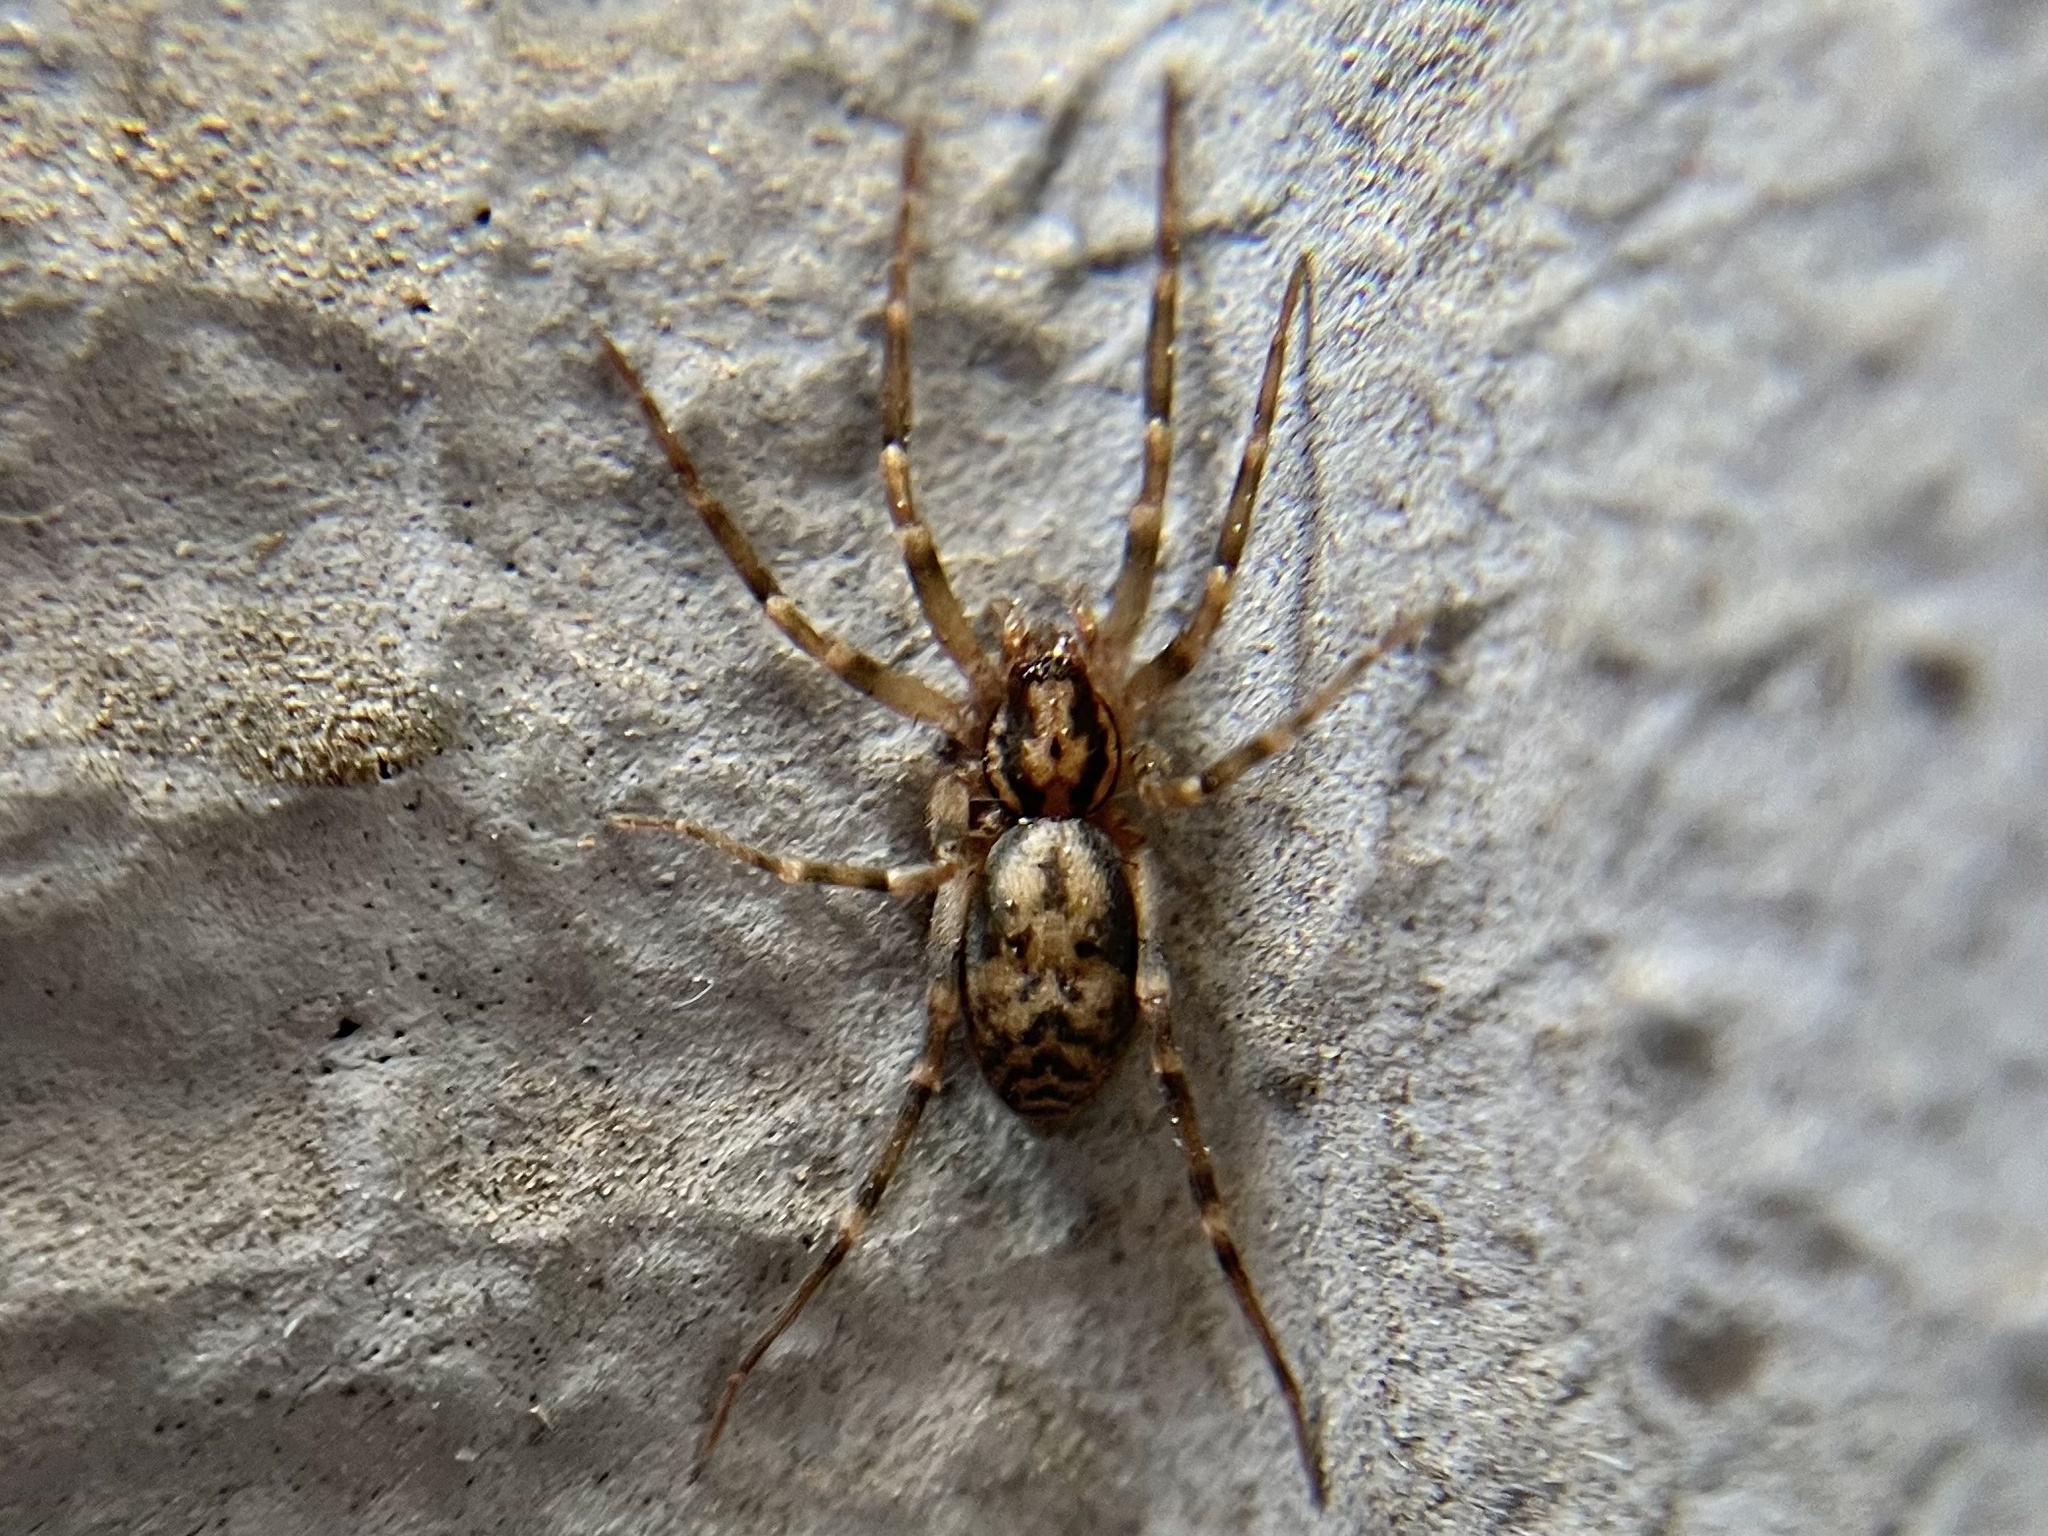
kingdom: Animalia
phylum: Arthropoda
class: Arachnida
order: Araneae
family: Liocranidae
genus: Liocranum
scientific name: Liocranum rupicola
